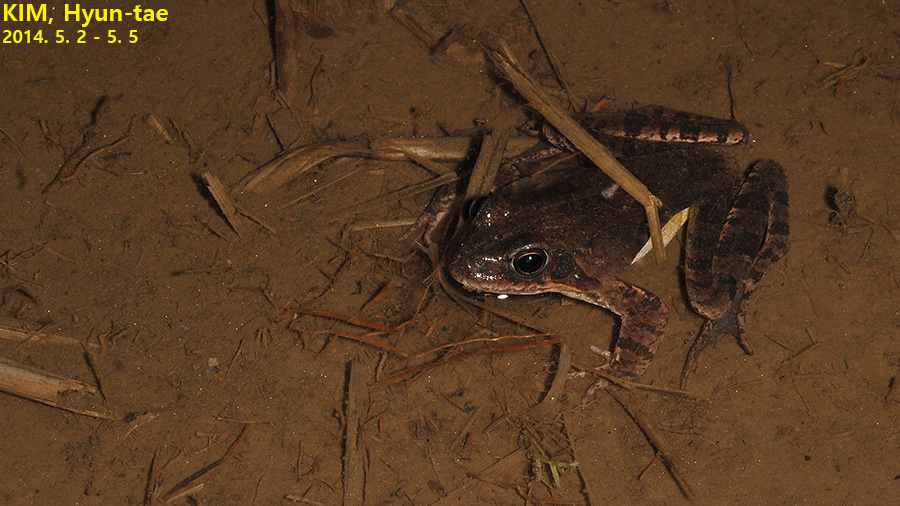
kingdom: Animalia
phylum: Chordata
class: Amphibia
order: Anura
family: Ranidae
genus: Rana
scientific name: Rana uenoi
